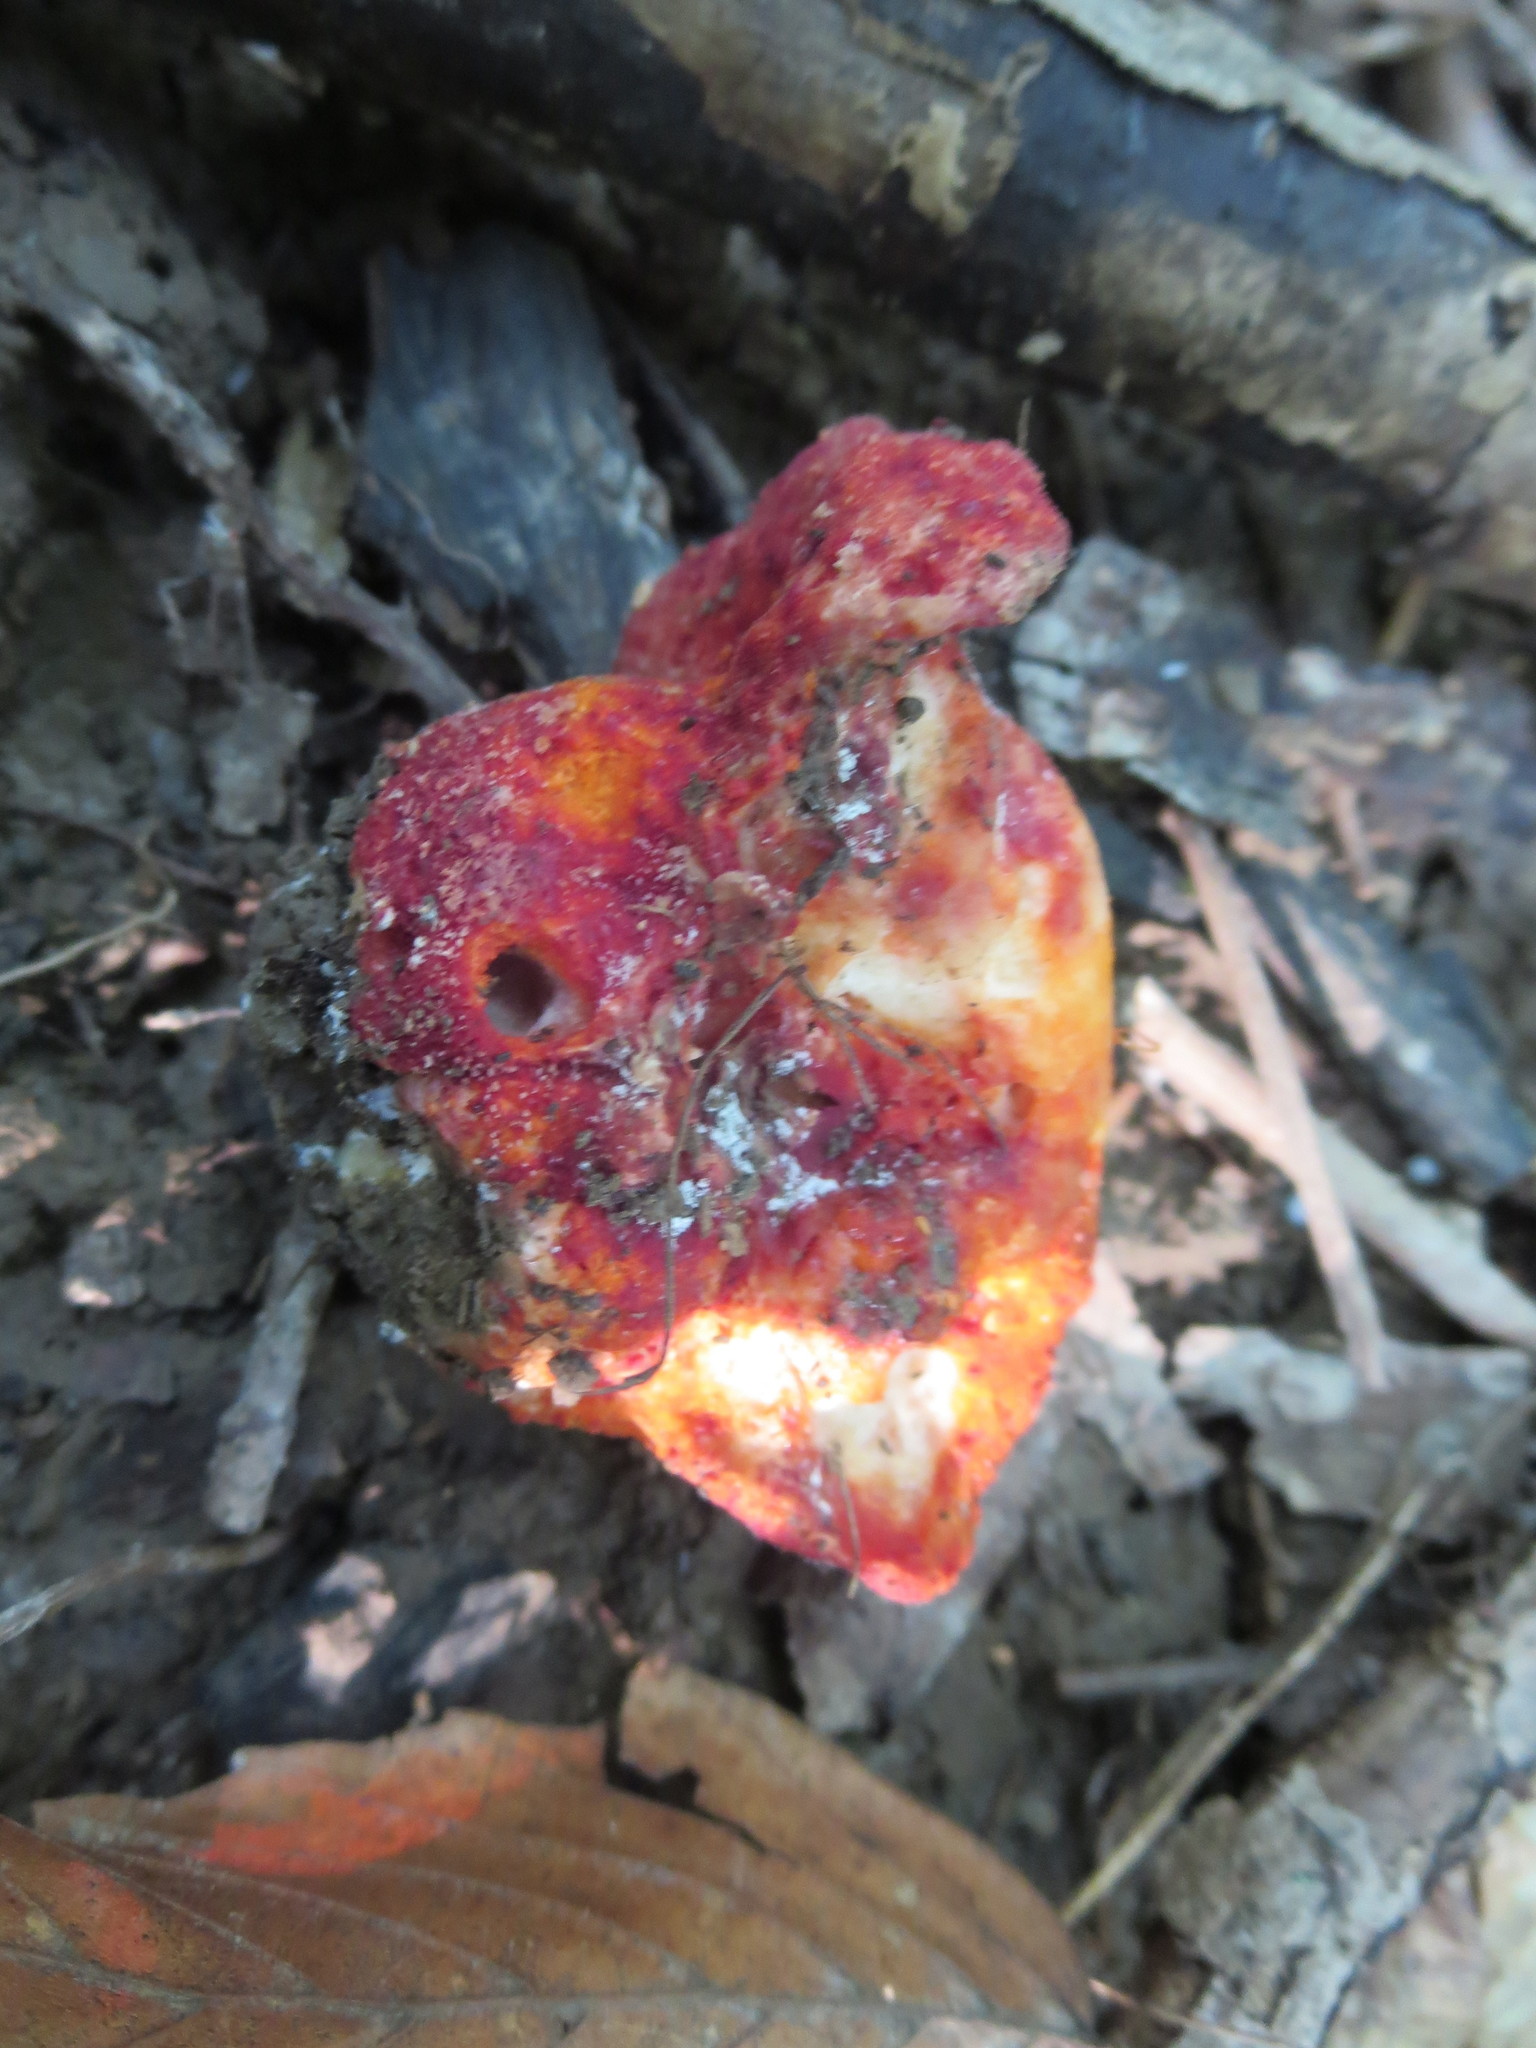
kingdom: Fungi
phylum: Ascomycota
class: Sordariomycetes
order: Hypocreales
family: Hypocreaceae
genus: Hypomyces
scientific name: Hypomyces lactifluorum
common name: Lobster mushroom
